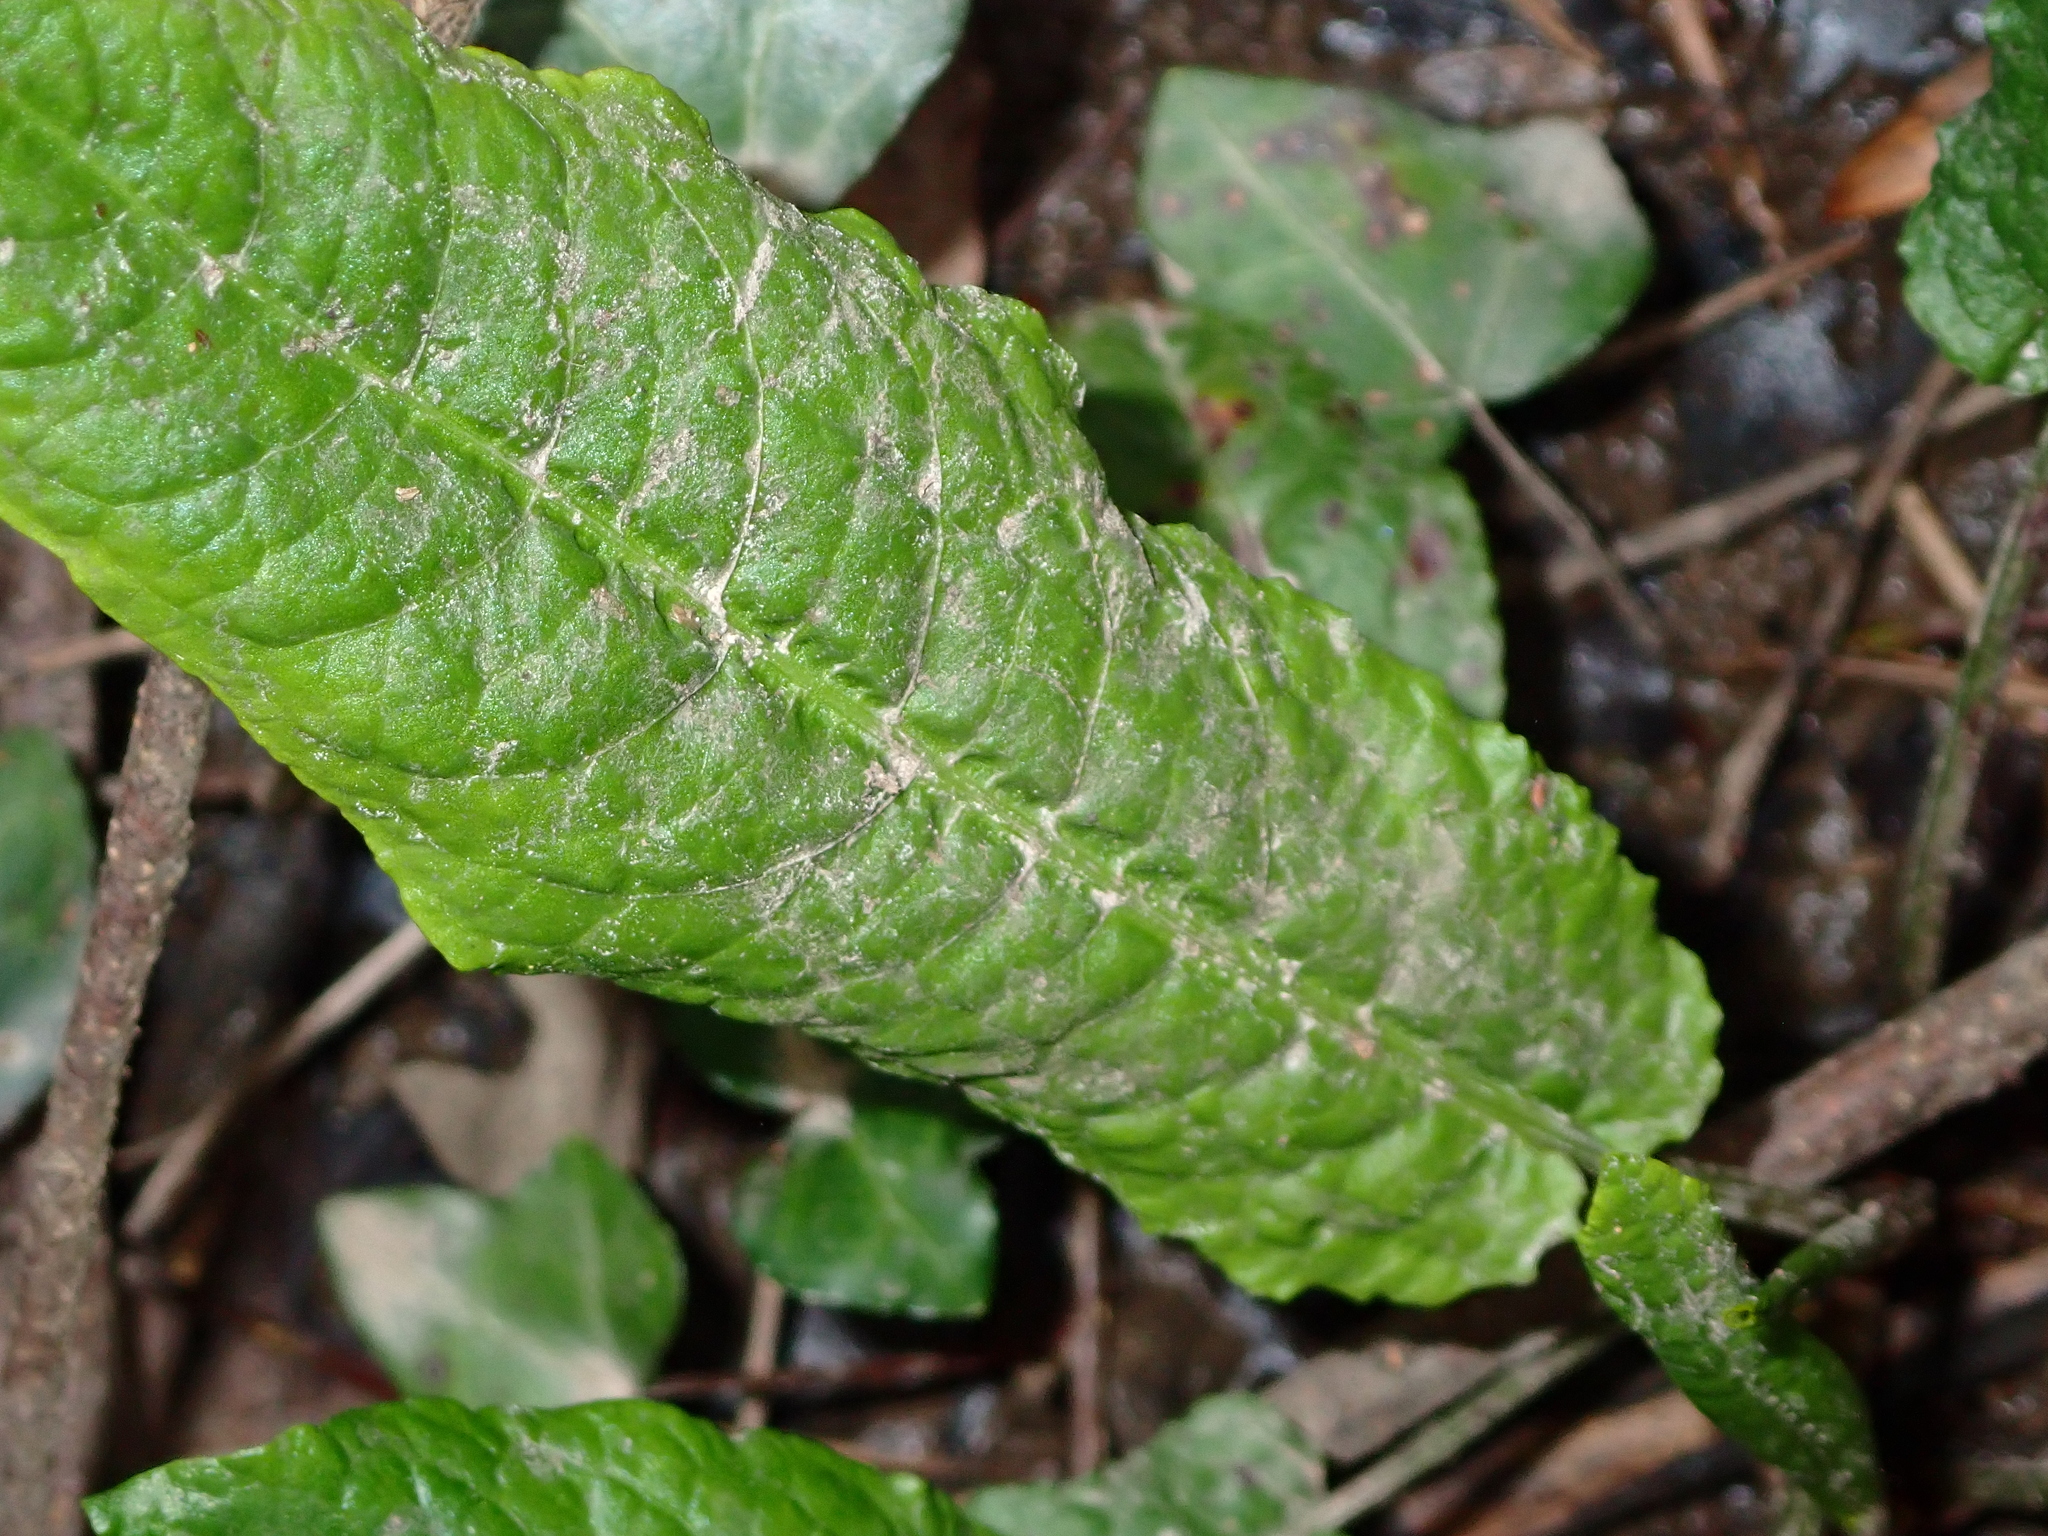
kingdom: Plantae
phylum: Tracheophyta
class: Magnoliopsida
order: Caryophyllales
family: Polygonaceae
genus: Rumex
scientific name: Rumex sanguineus
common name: Wood dock
